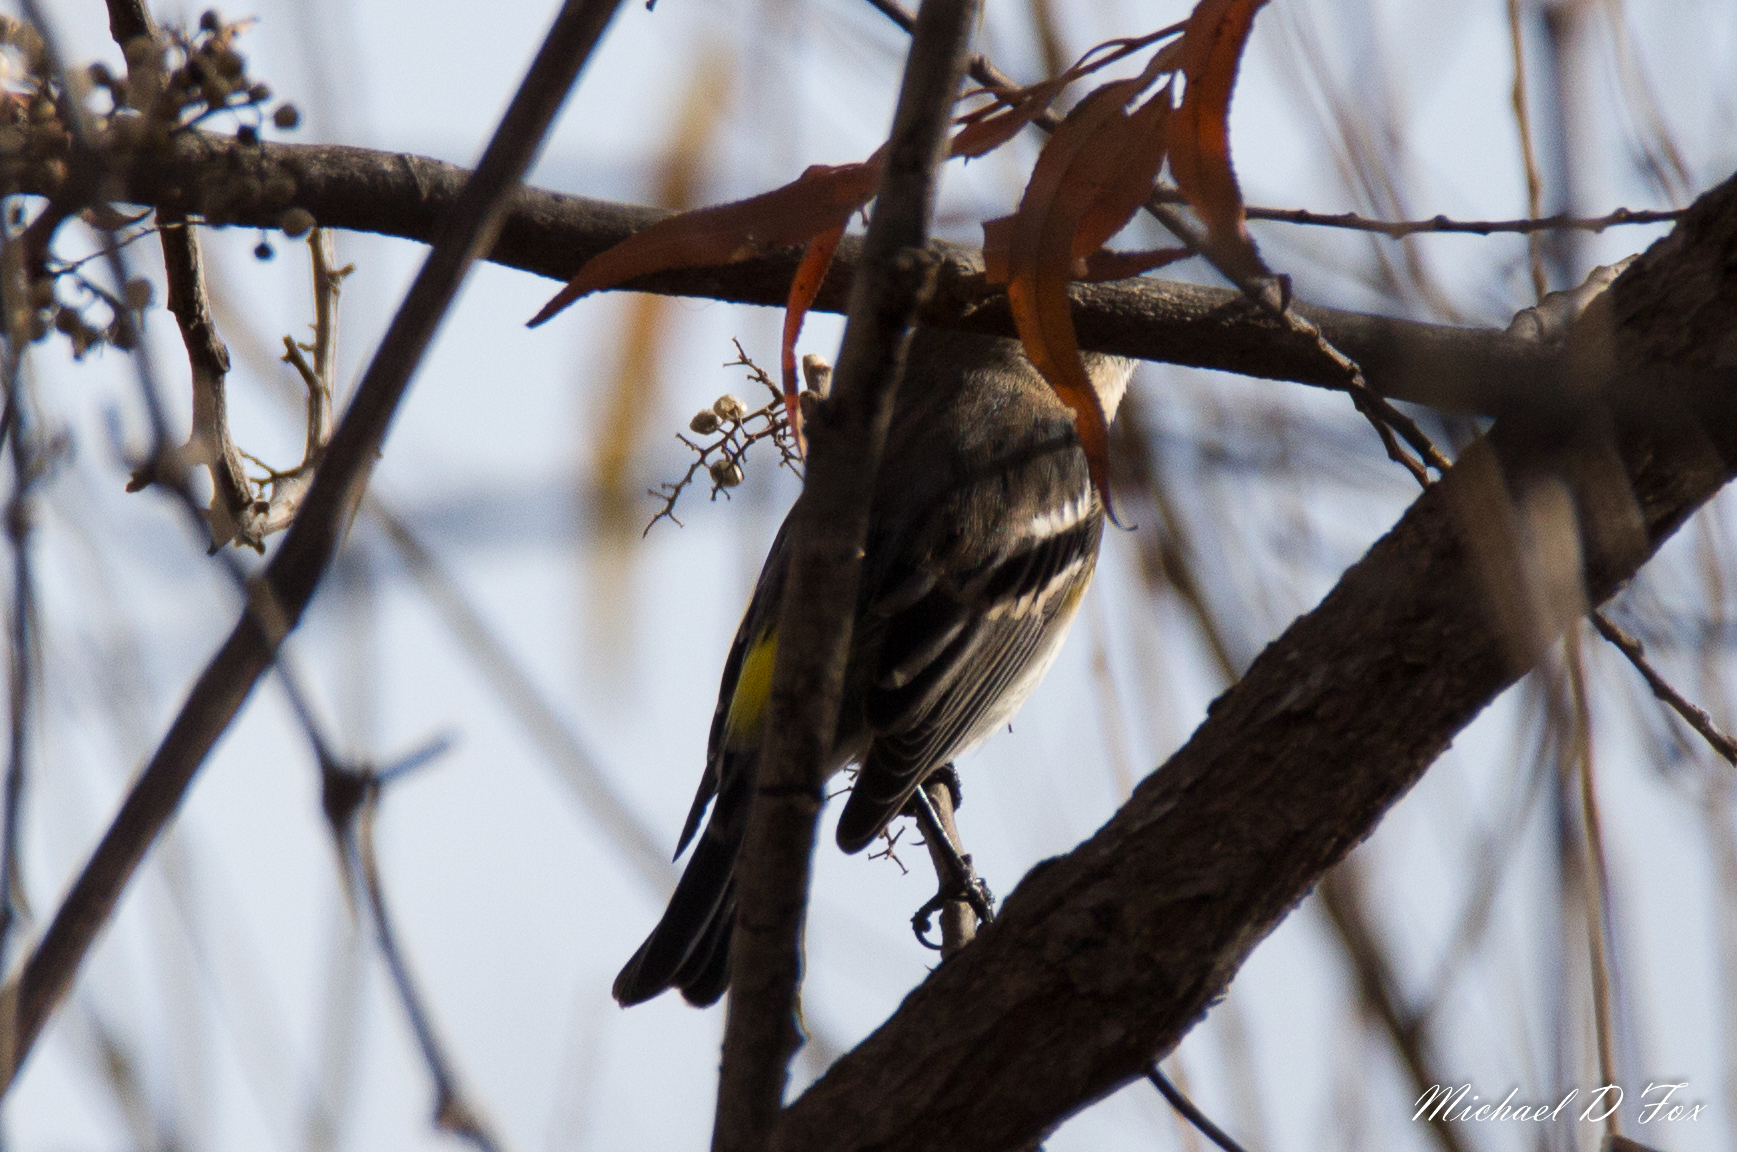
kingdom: Animalia
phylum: Chordata
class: Aves
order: Passeriformes
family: Parulidae
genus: Setophaga
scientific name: Setophaga coronata
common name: Myrtle warbler
